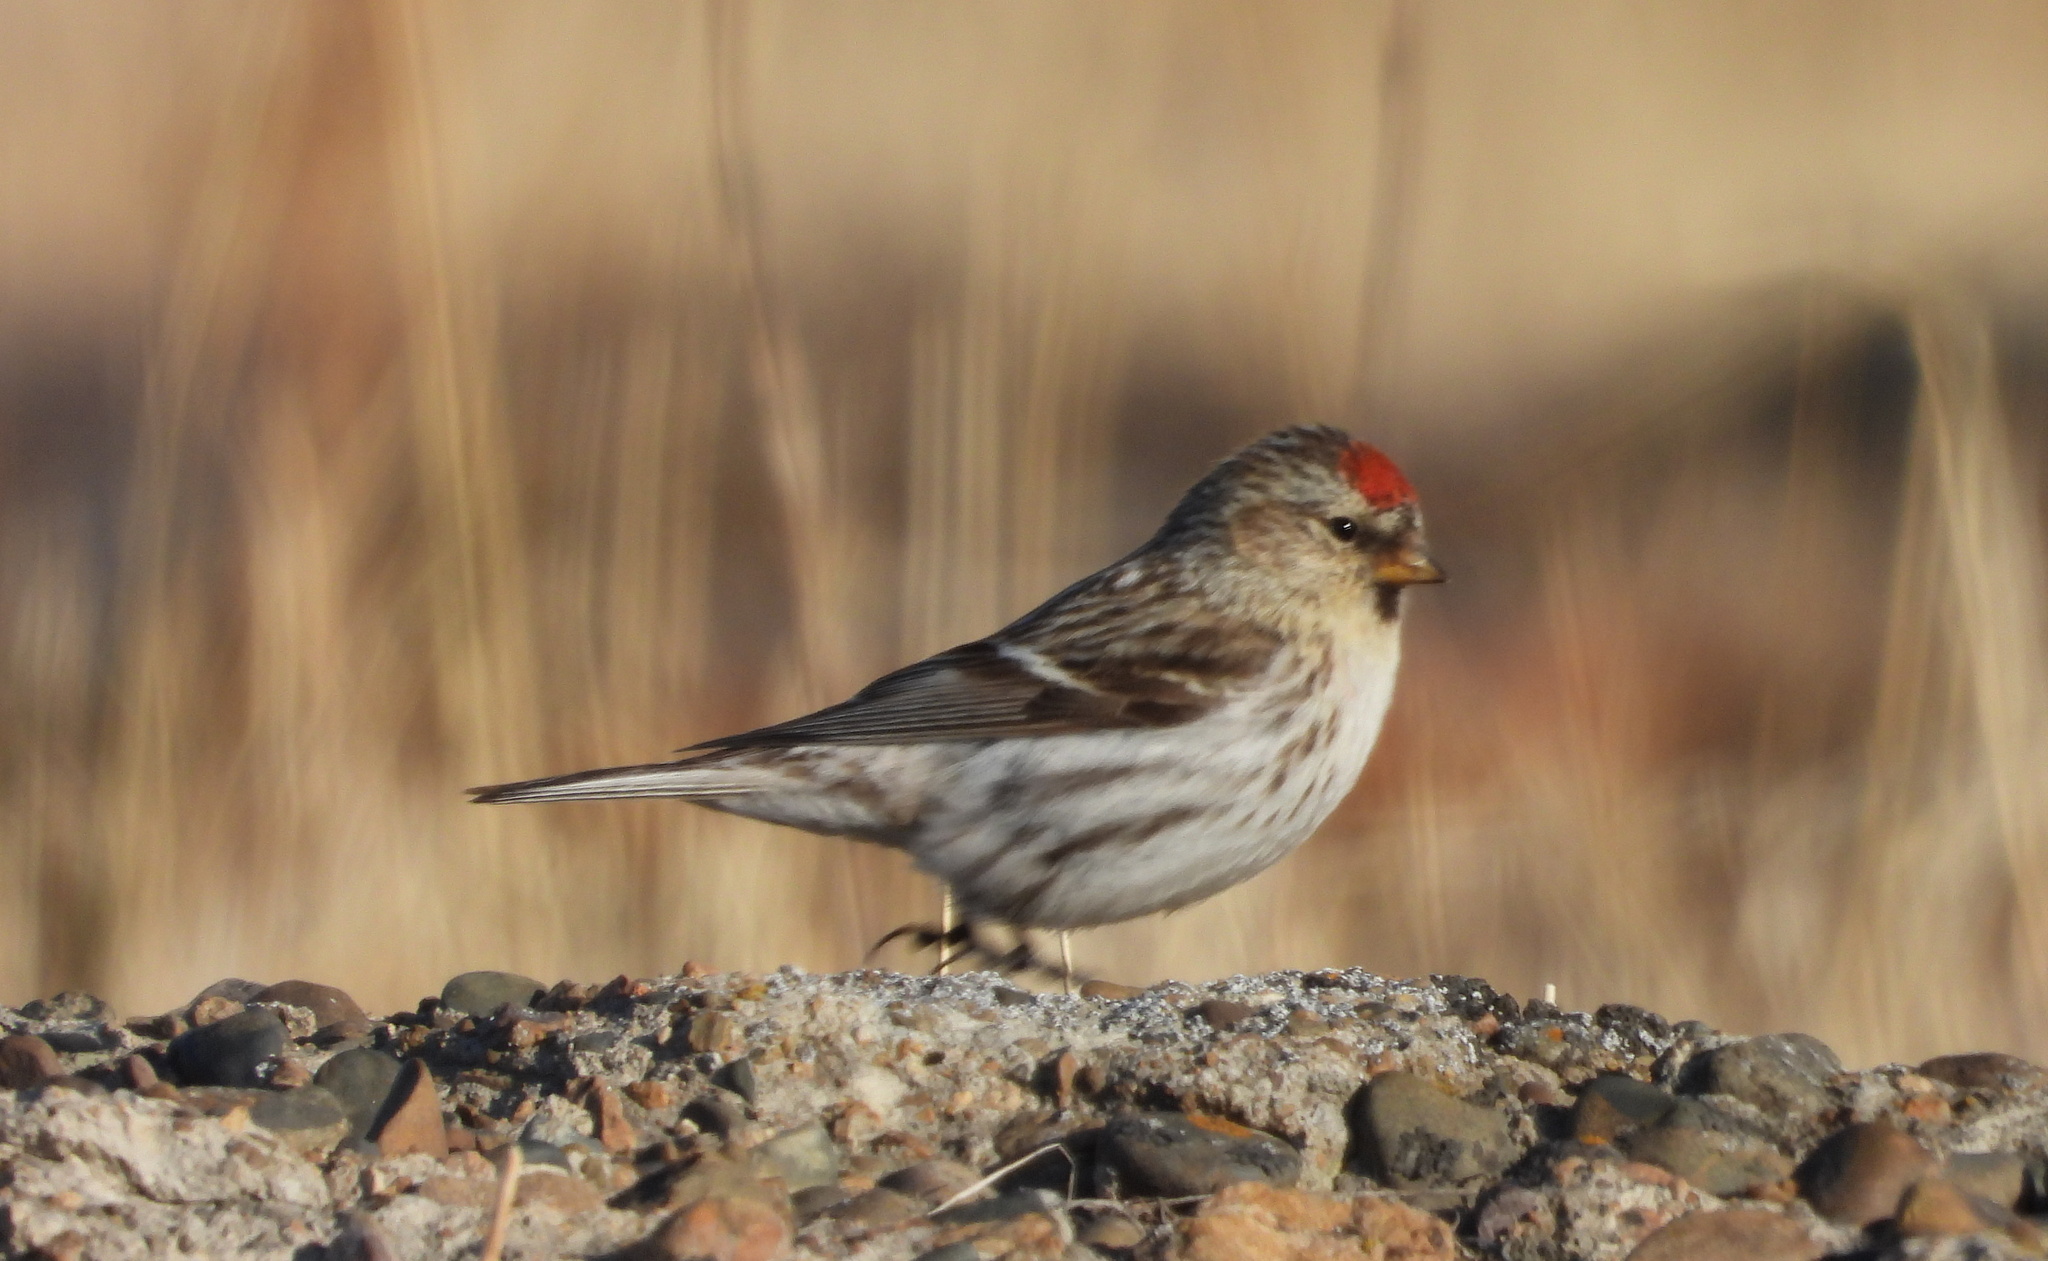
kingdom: Animalia
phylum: Chordata
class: Aves
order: Passeriformes
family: Fringillidae
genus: Acanthis
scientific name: Acanthis flammea
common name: Common redpoll
